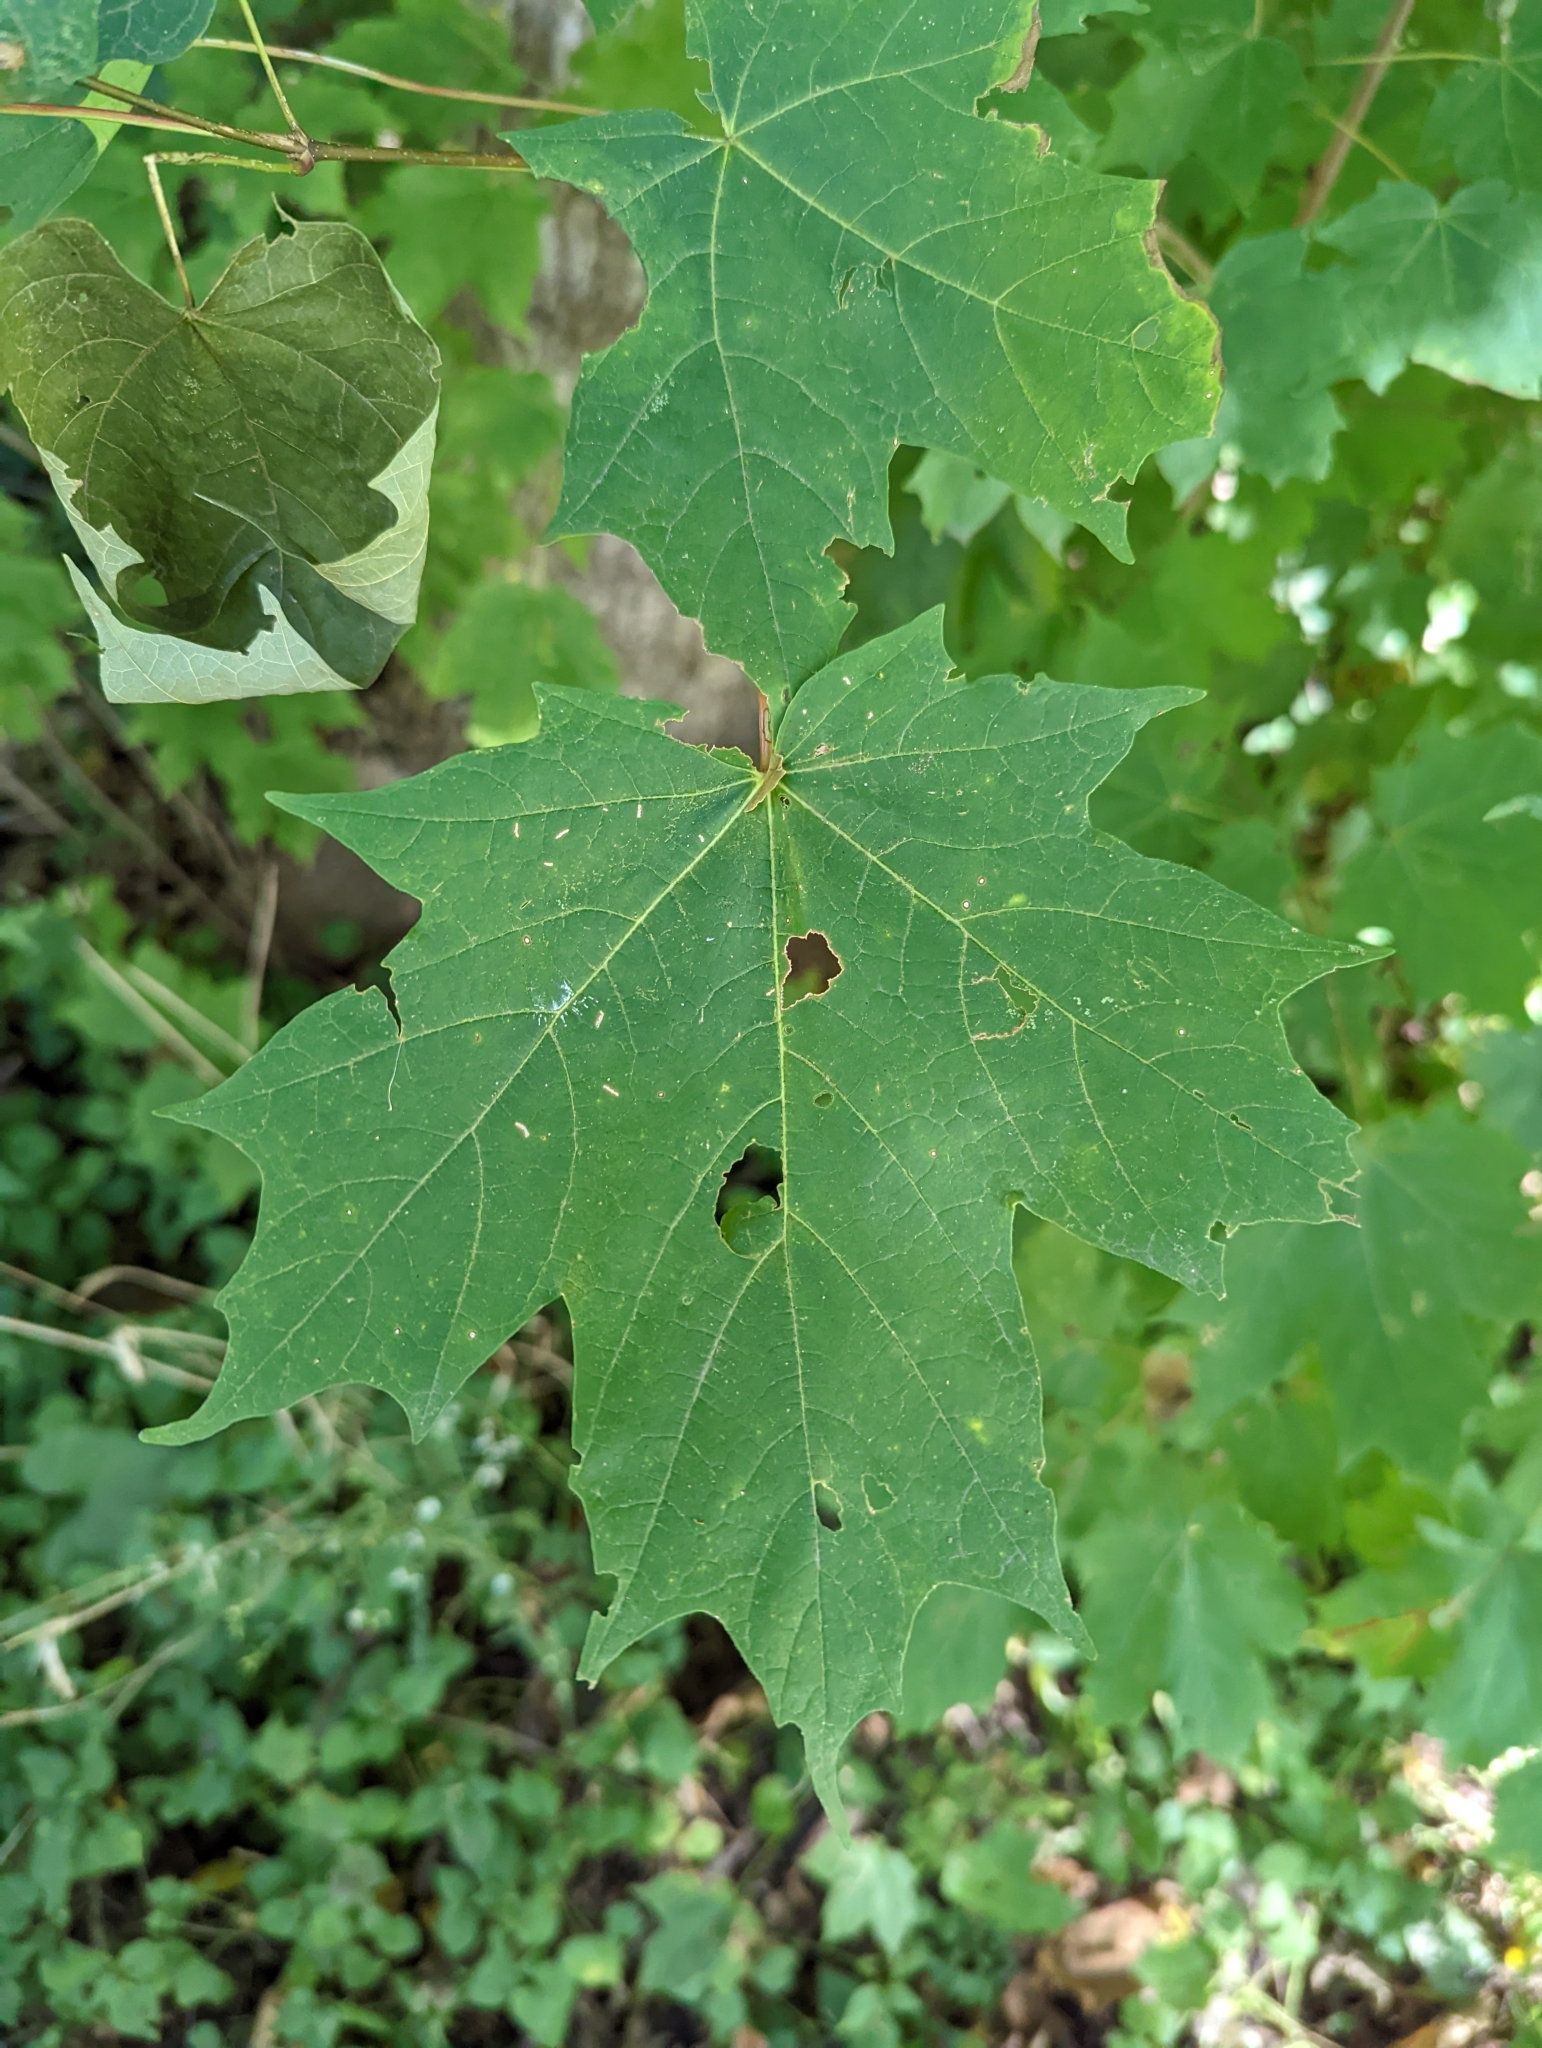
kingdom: Plantae
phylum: Tracheophyta
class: Magnoliopsida
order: Sapindales
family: Sapindaceae
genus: Acer
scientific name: Acer saccharum
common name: Sugar maple
